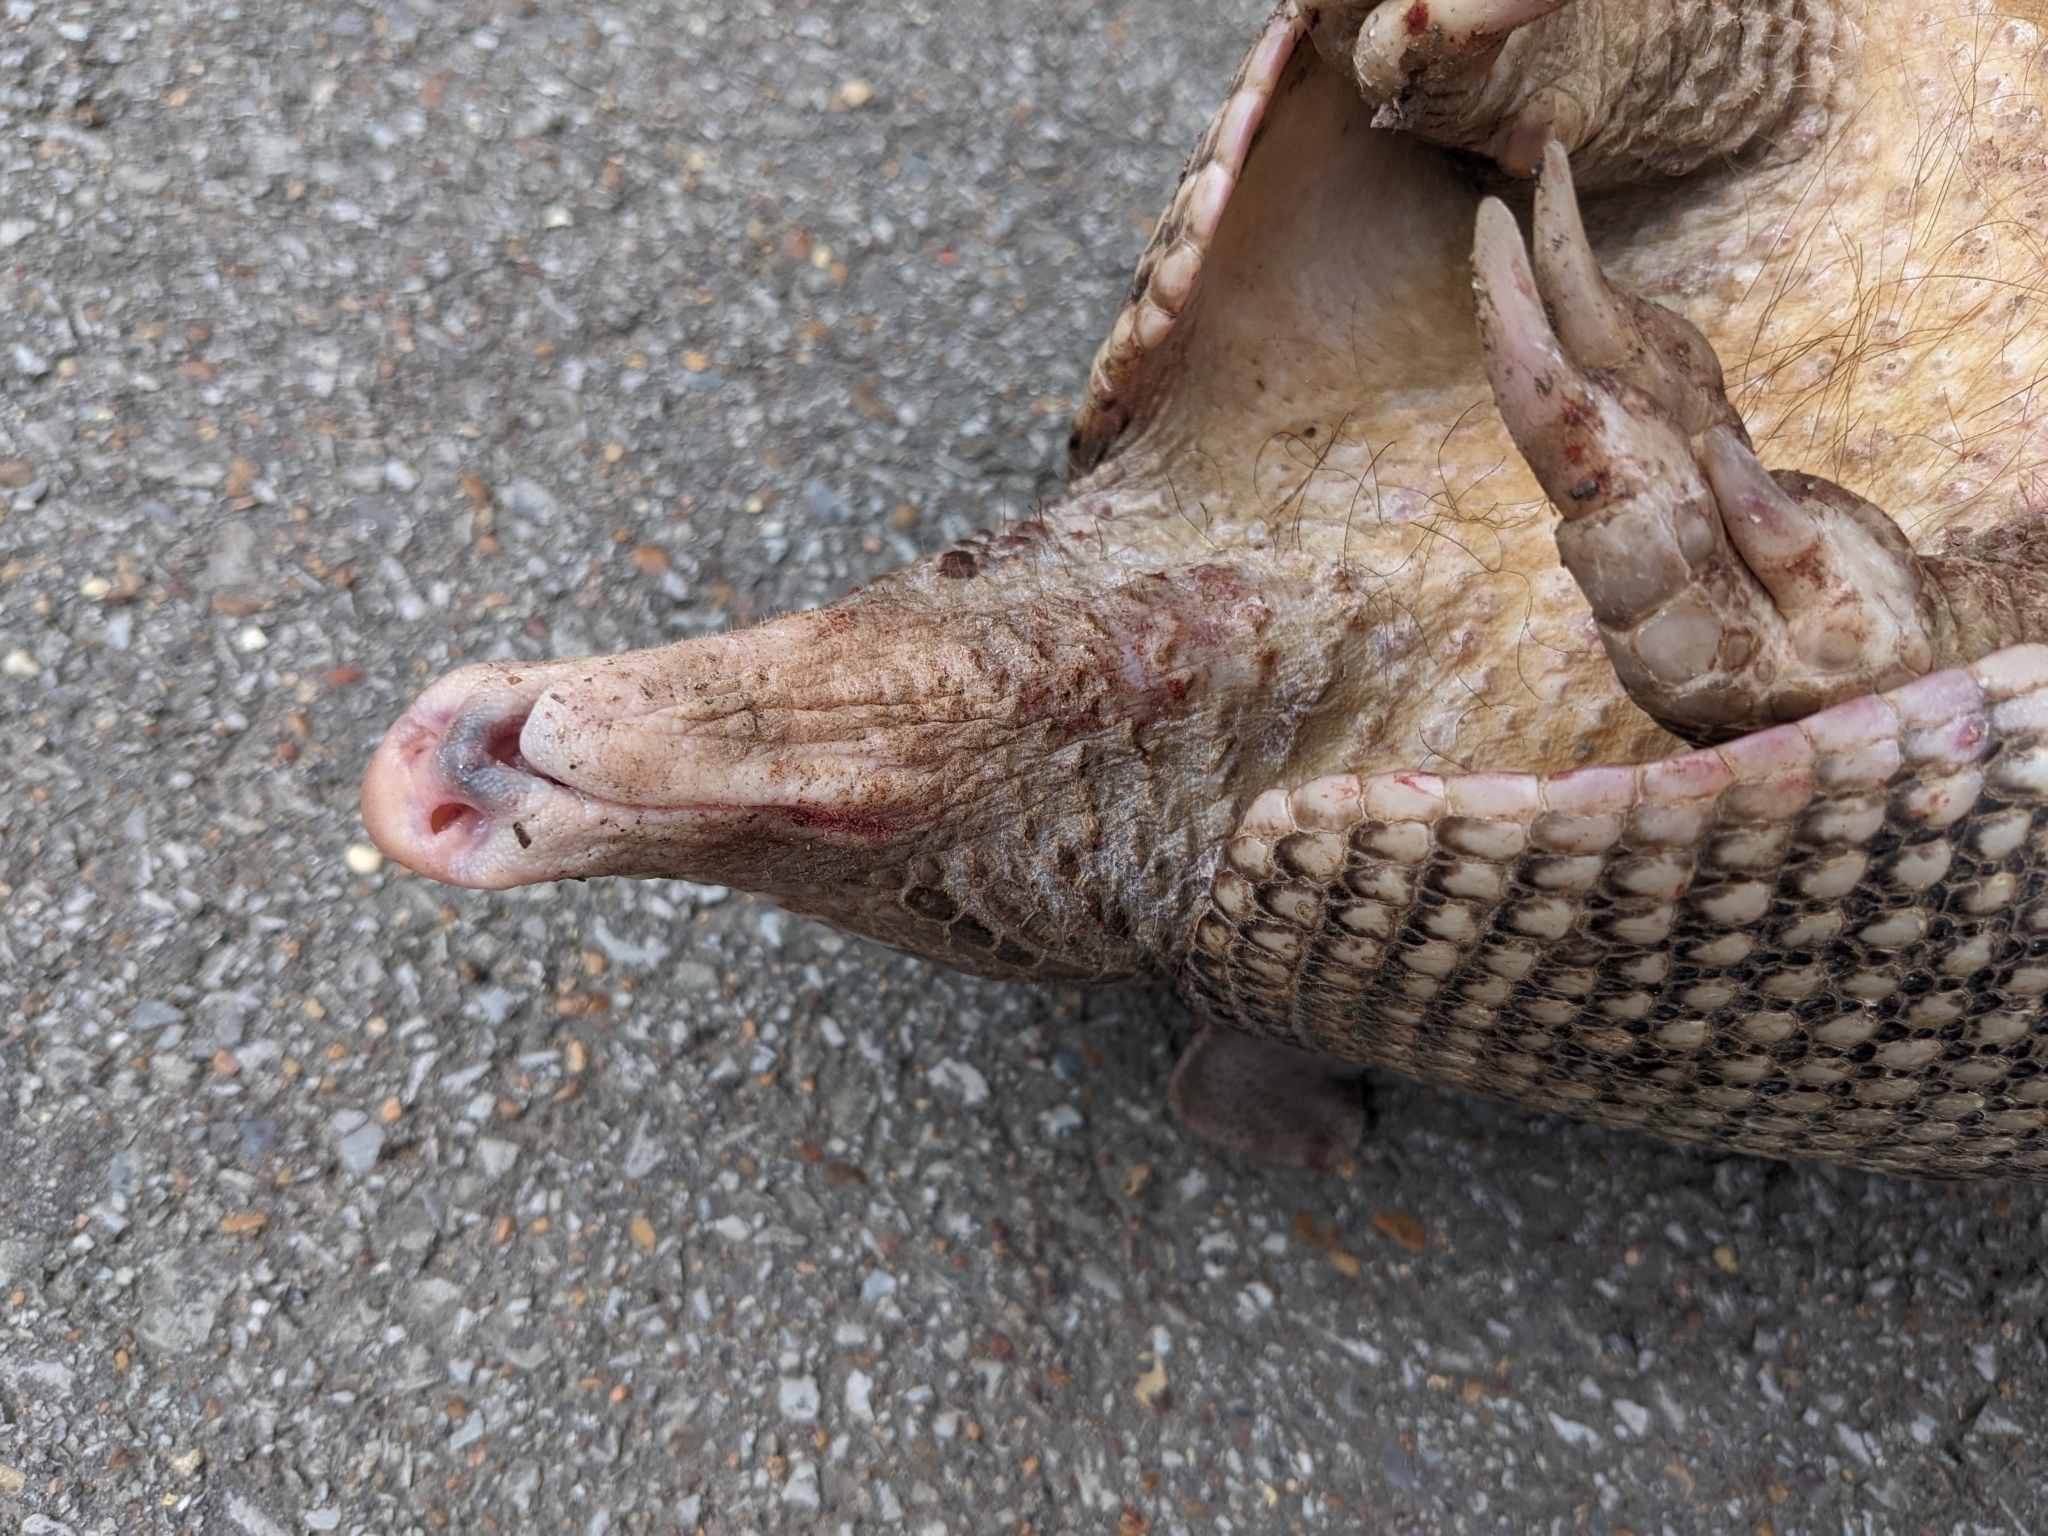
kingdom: Animalia
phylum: Chordata
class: Mammalia
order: Cingulata
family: Dasypodidae
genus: Dasypus
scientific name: Dasypus novemcinctus
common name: Nine-banded armadillo
